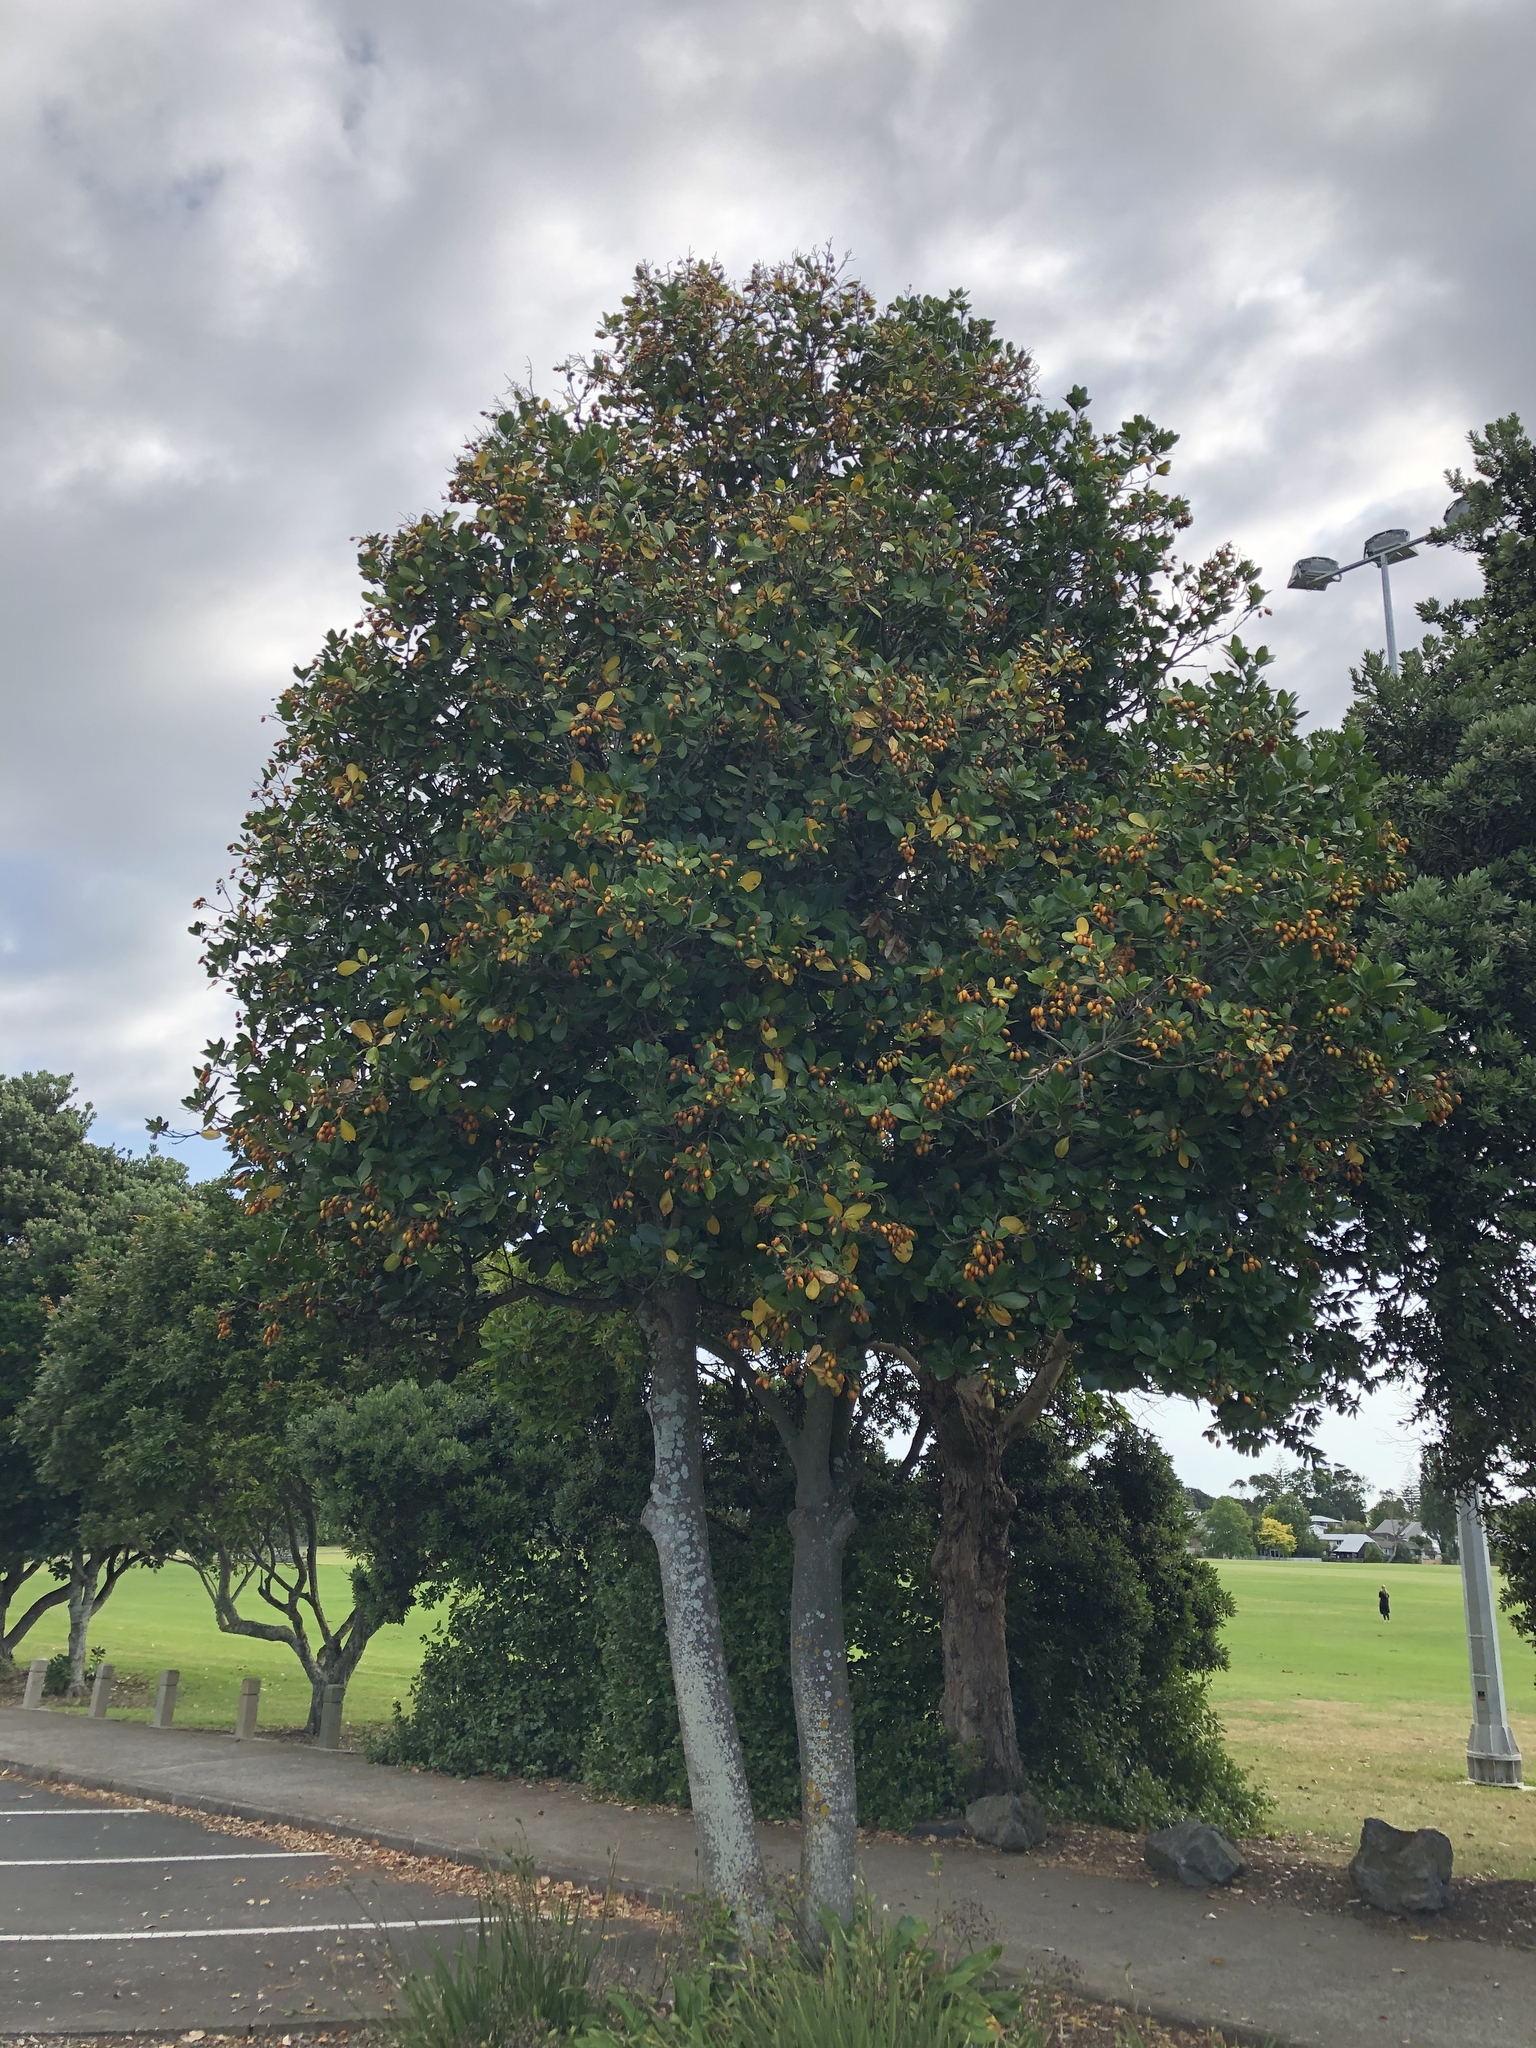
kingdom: Plantae
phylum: Tracheophyta
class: Magnoliopsida
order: Cucurbitales
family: Corynocarpaceae
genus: Corynocarpus
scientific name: Corynocarpus laevigatus
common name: New zealand laurel
